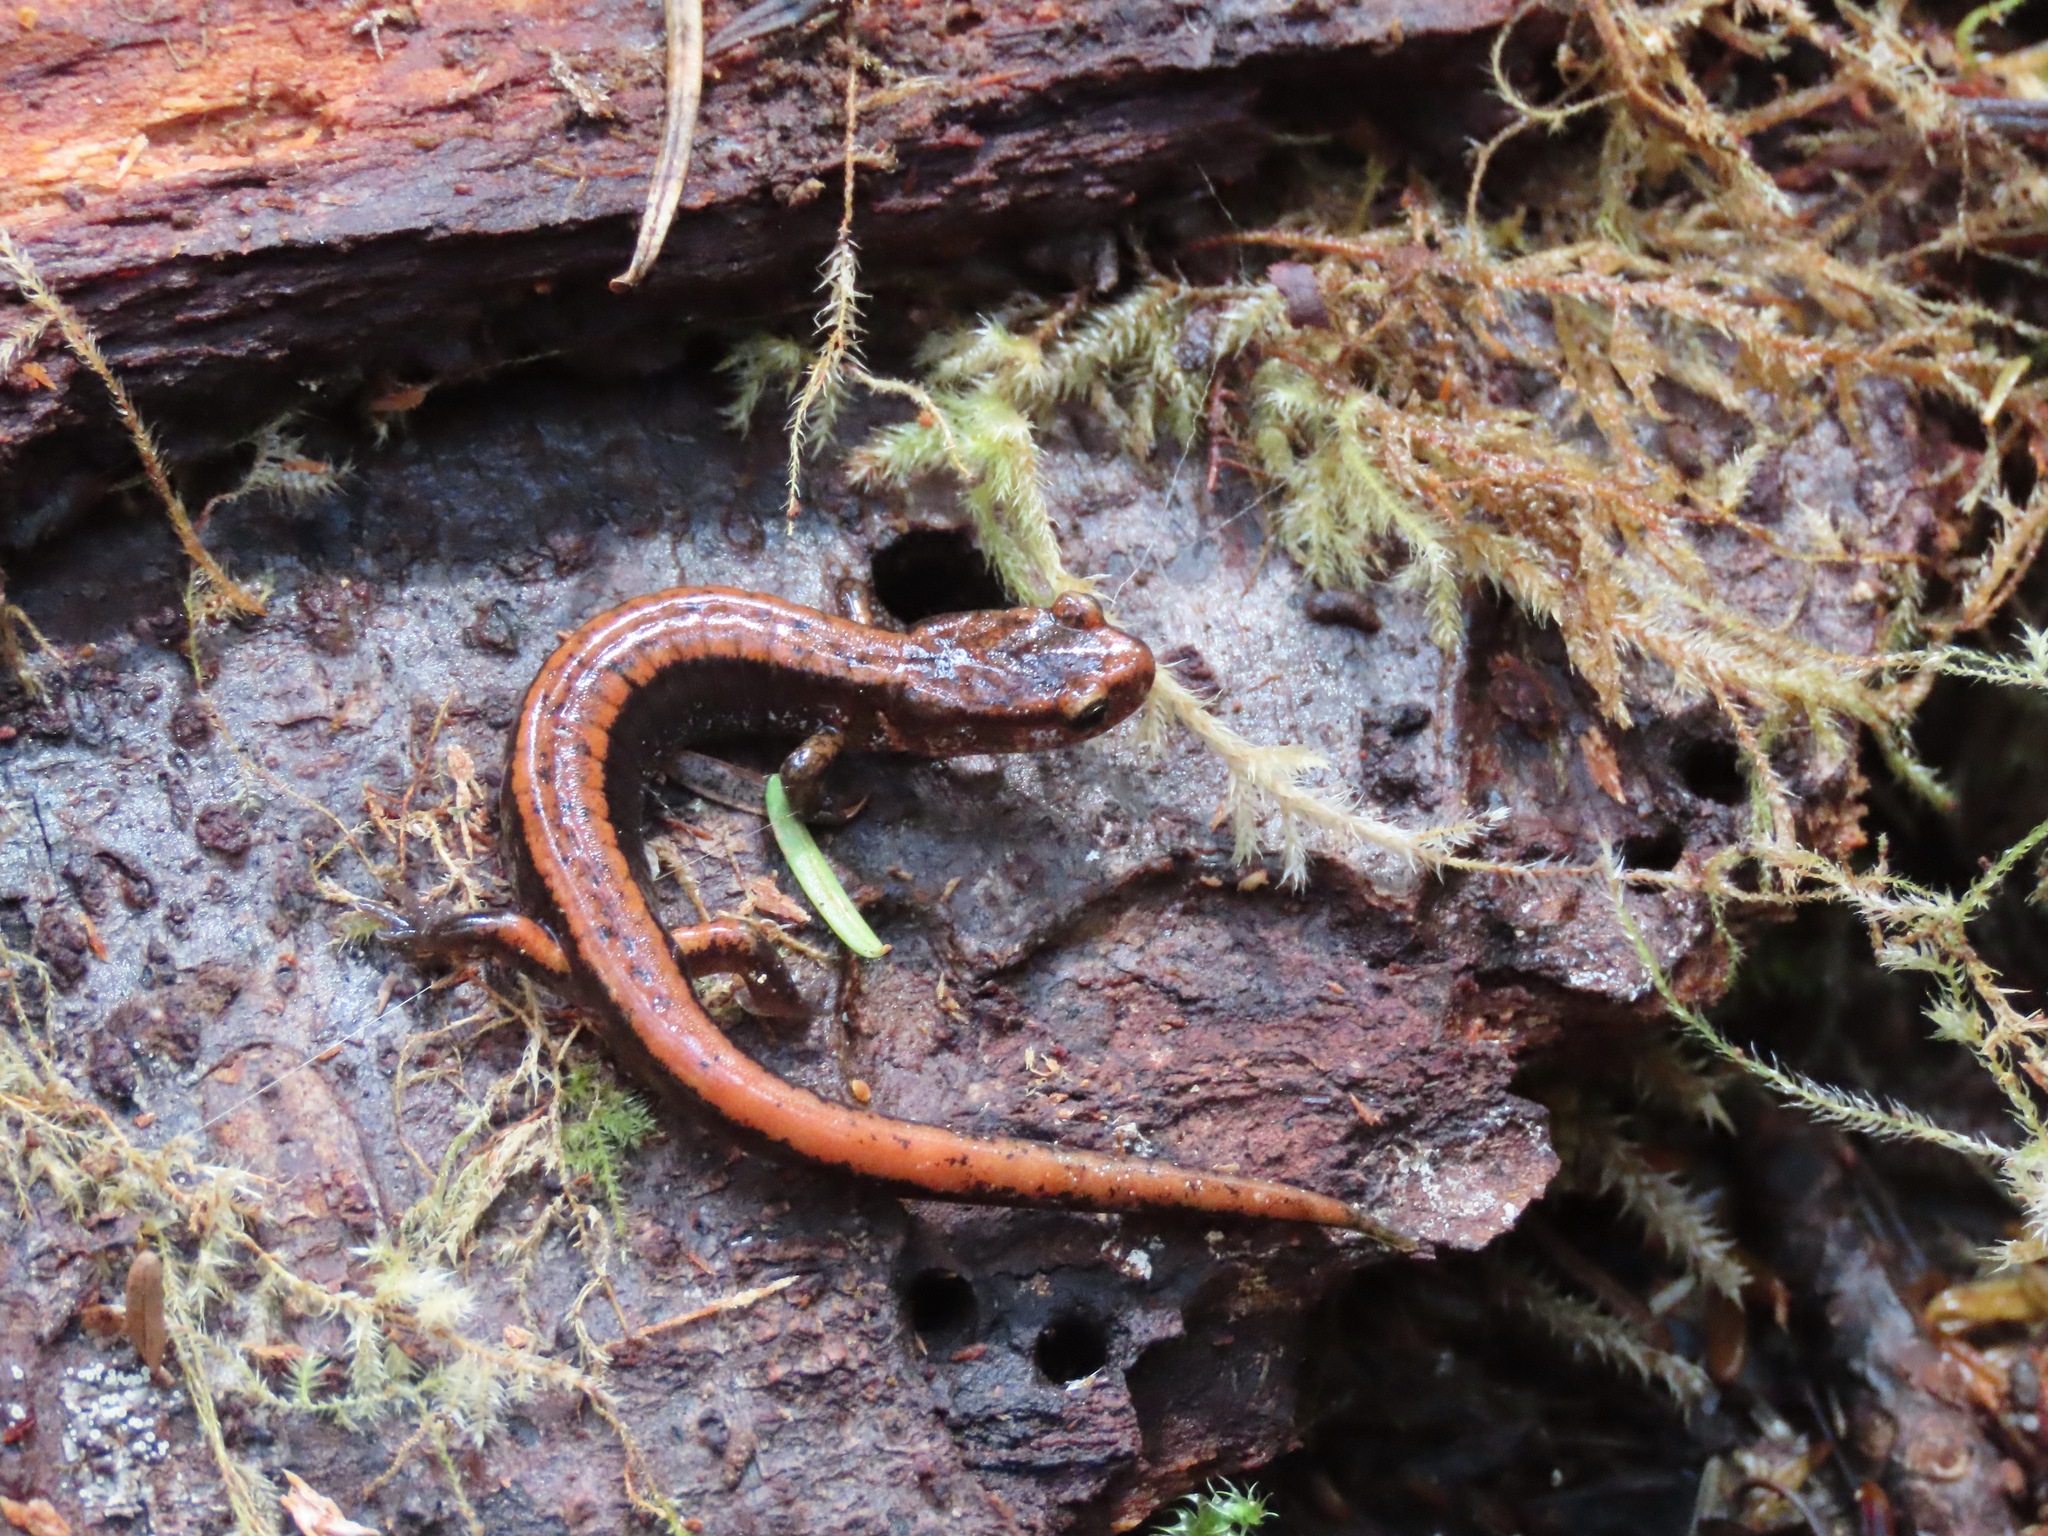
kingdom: Animalia
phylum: Chordata
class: Amphibia
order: Caudata
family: Plethodontidae
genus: Plethodon
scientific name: Plethodon vehiculum
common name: Western red-backed salamander
